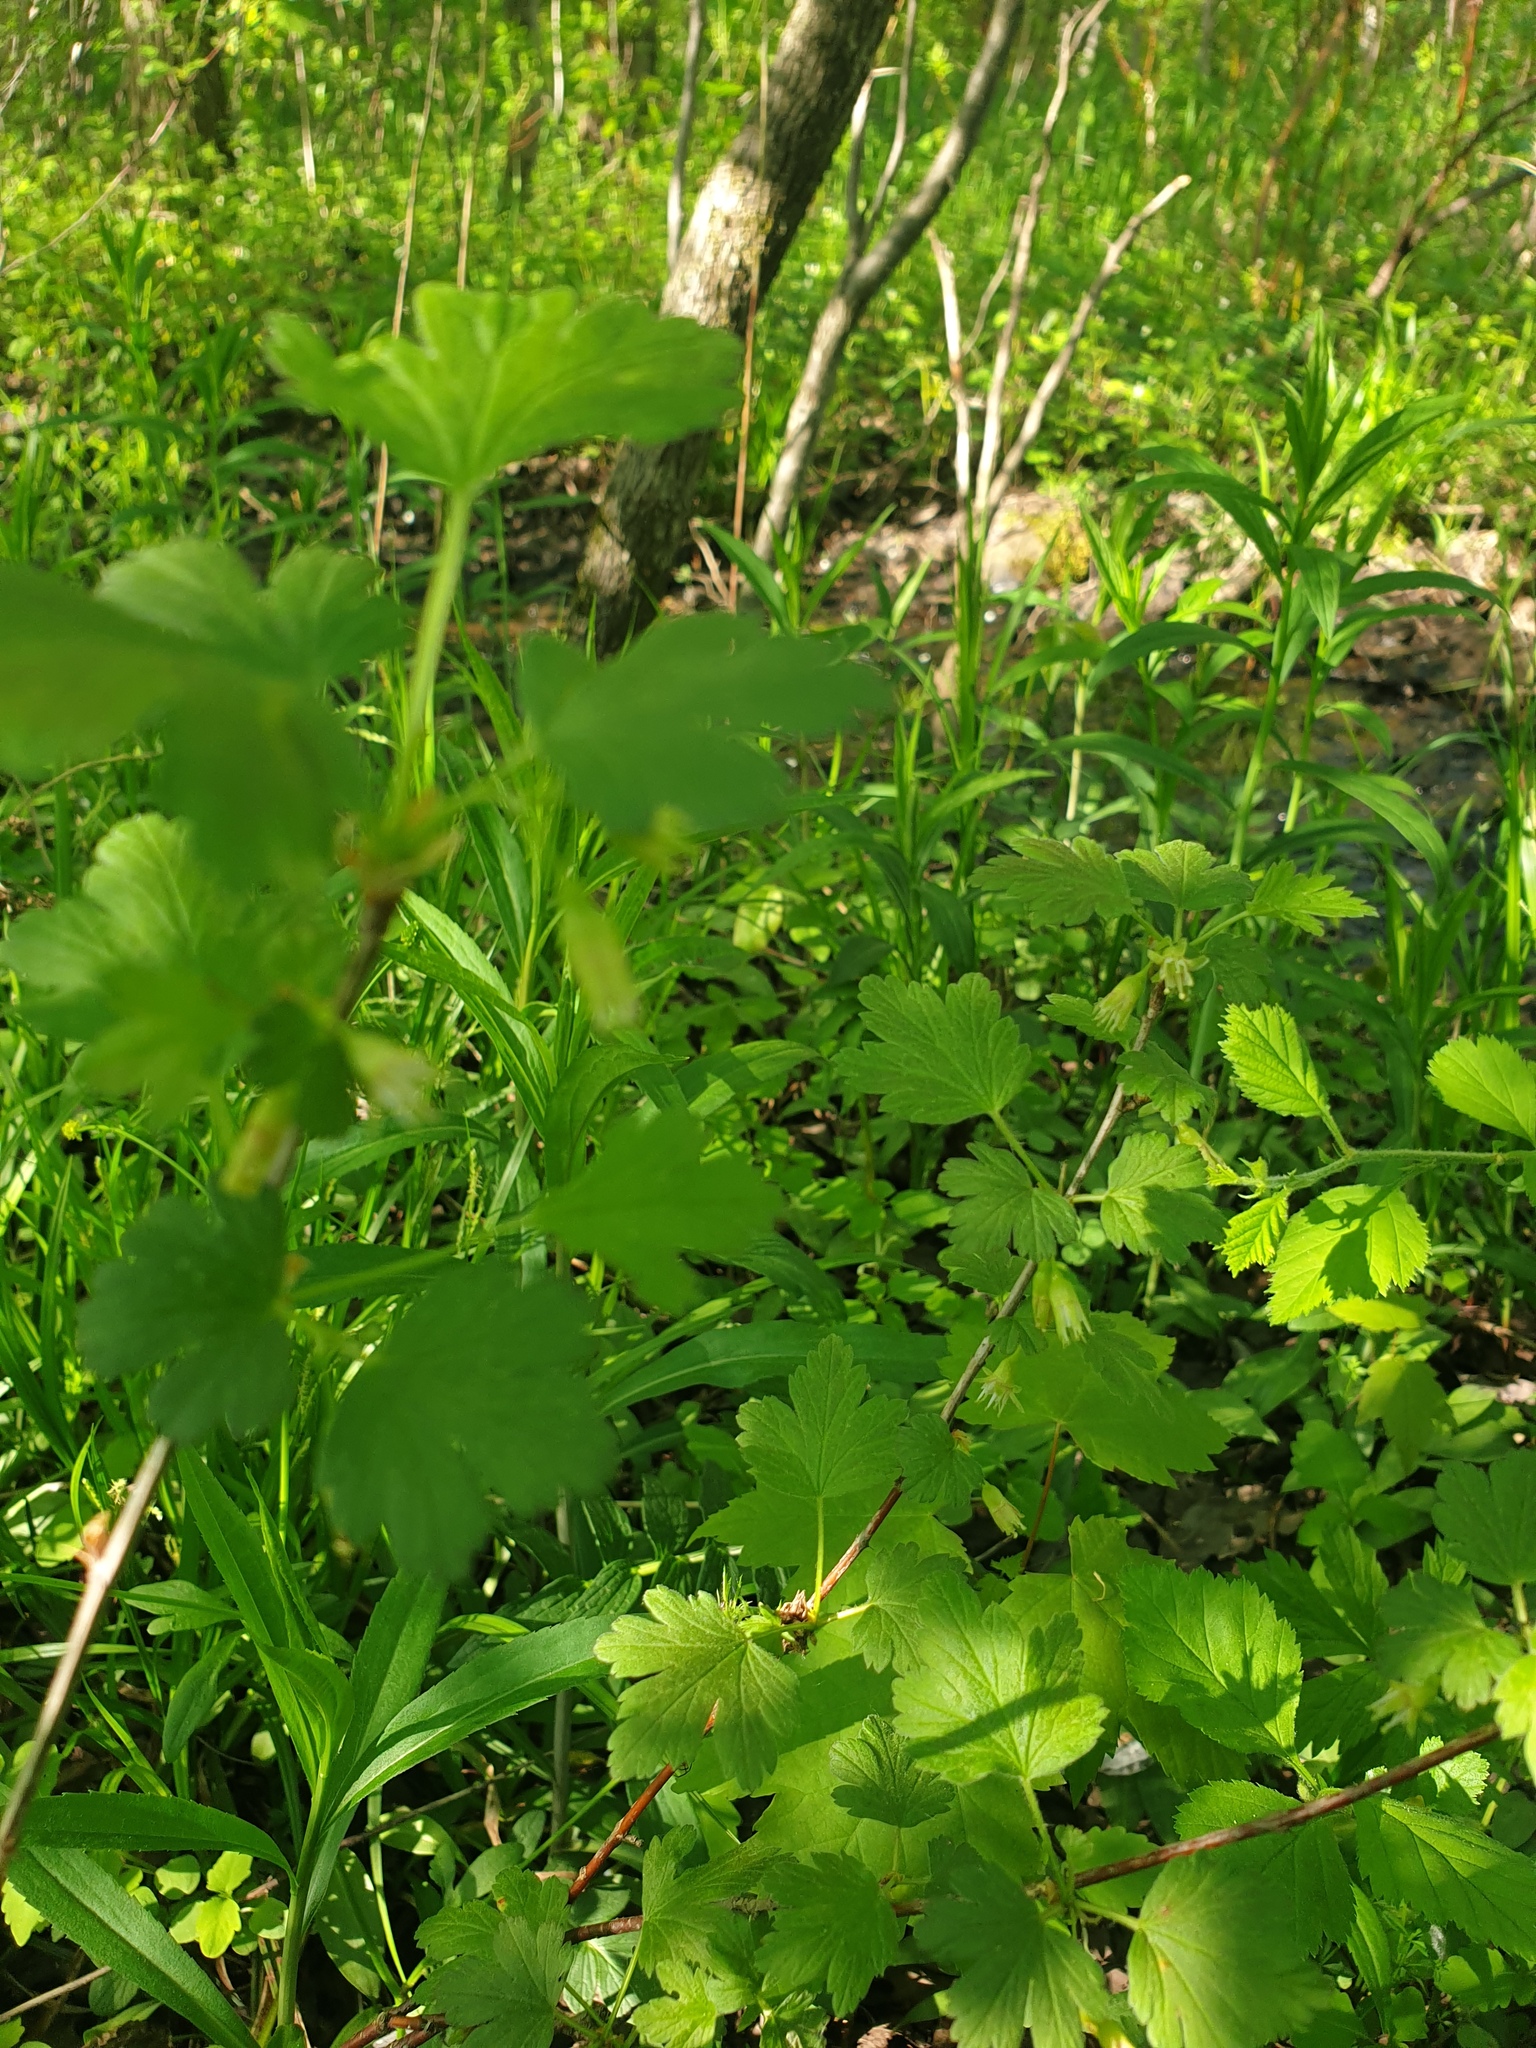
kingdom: Plantae
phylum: Tracheophyta
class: Magnoliopsida
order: Saxifragales
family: Grossulariaceae
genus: Ribes
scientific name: Ribes hirtellum
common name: Hairy gooseberry
